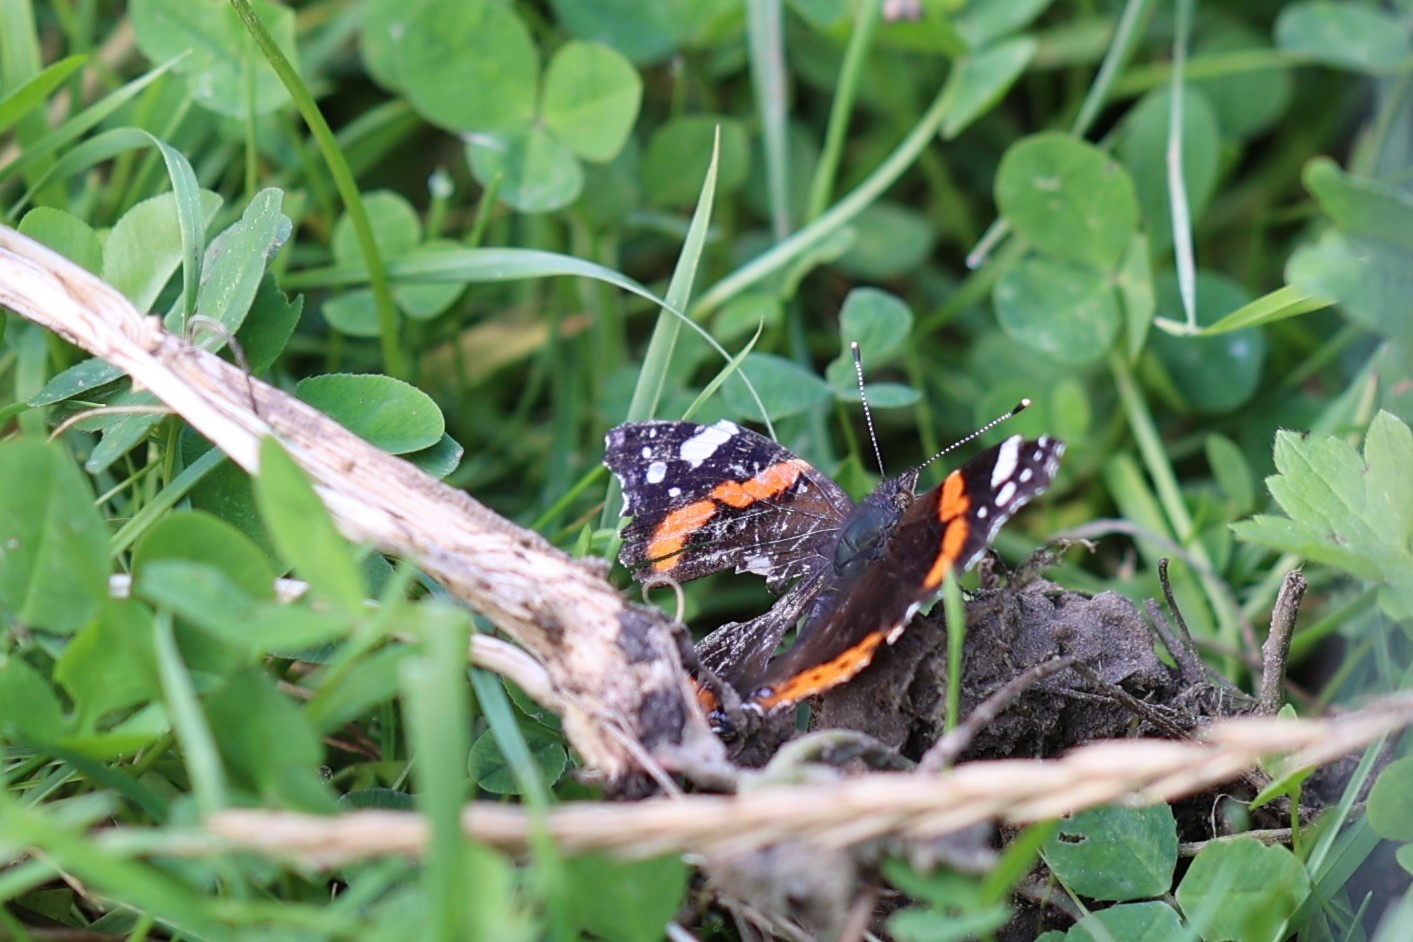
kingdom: Animalia
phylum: Arthropoda
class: Insecta
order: Lepidoptera
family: Nymphalidae
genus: Vanessa
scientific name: Vanessa atalanta
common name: Red admiral
